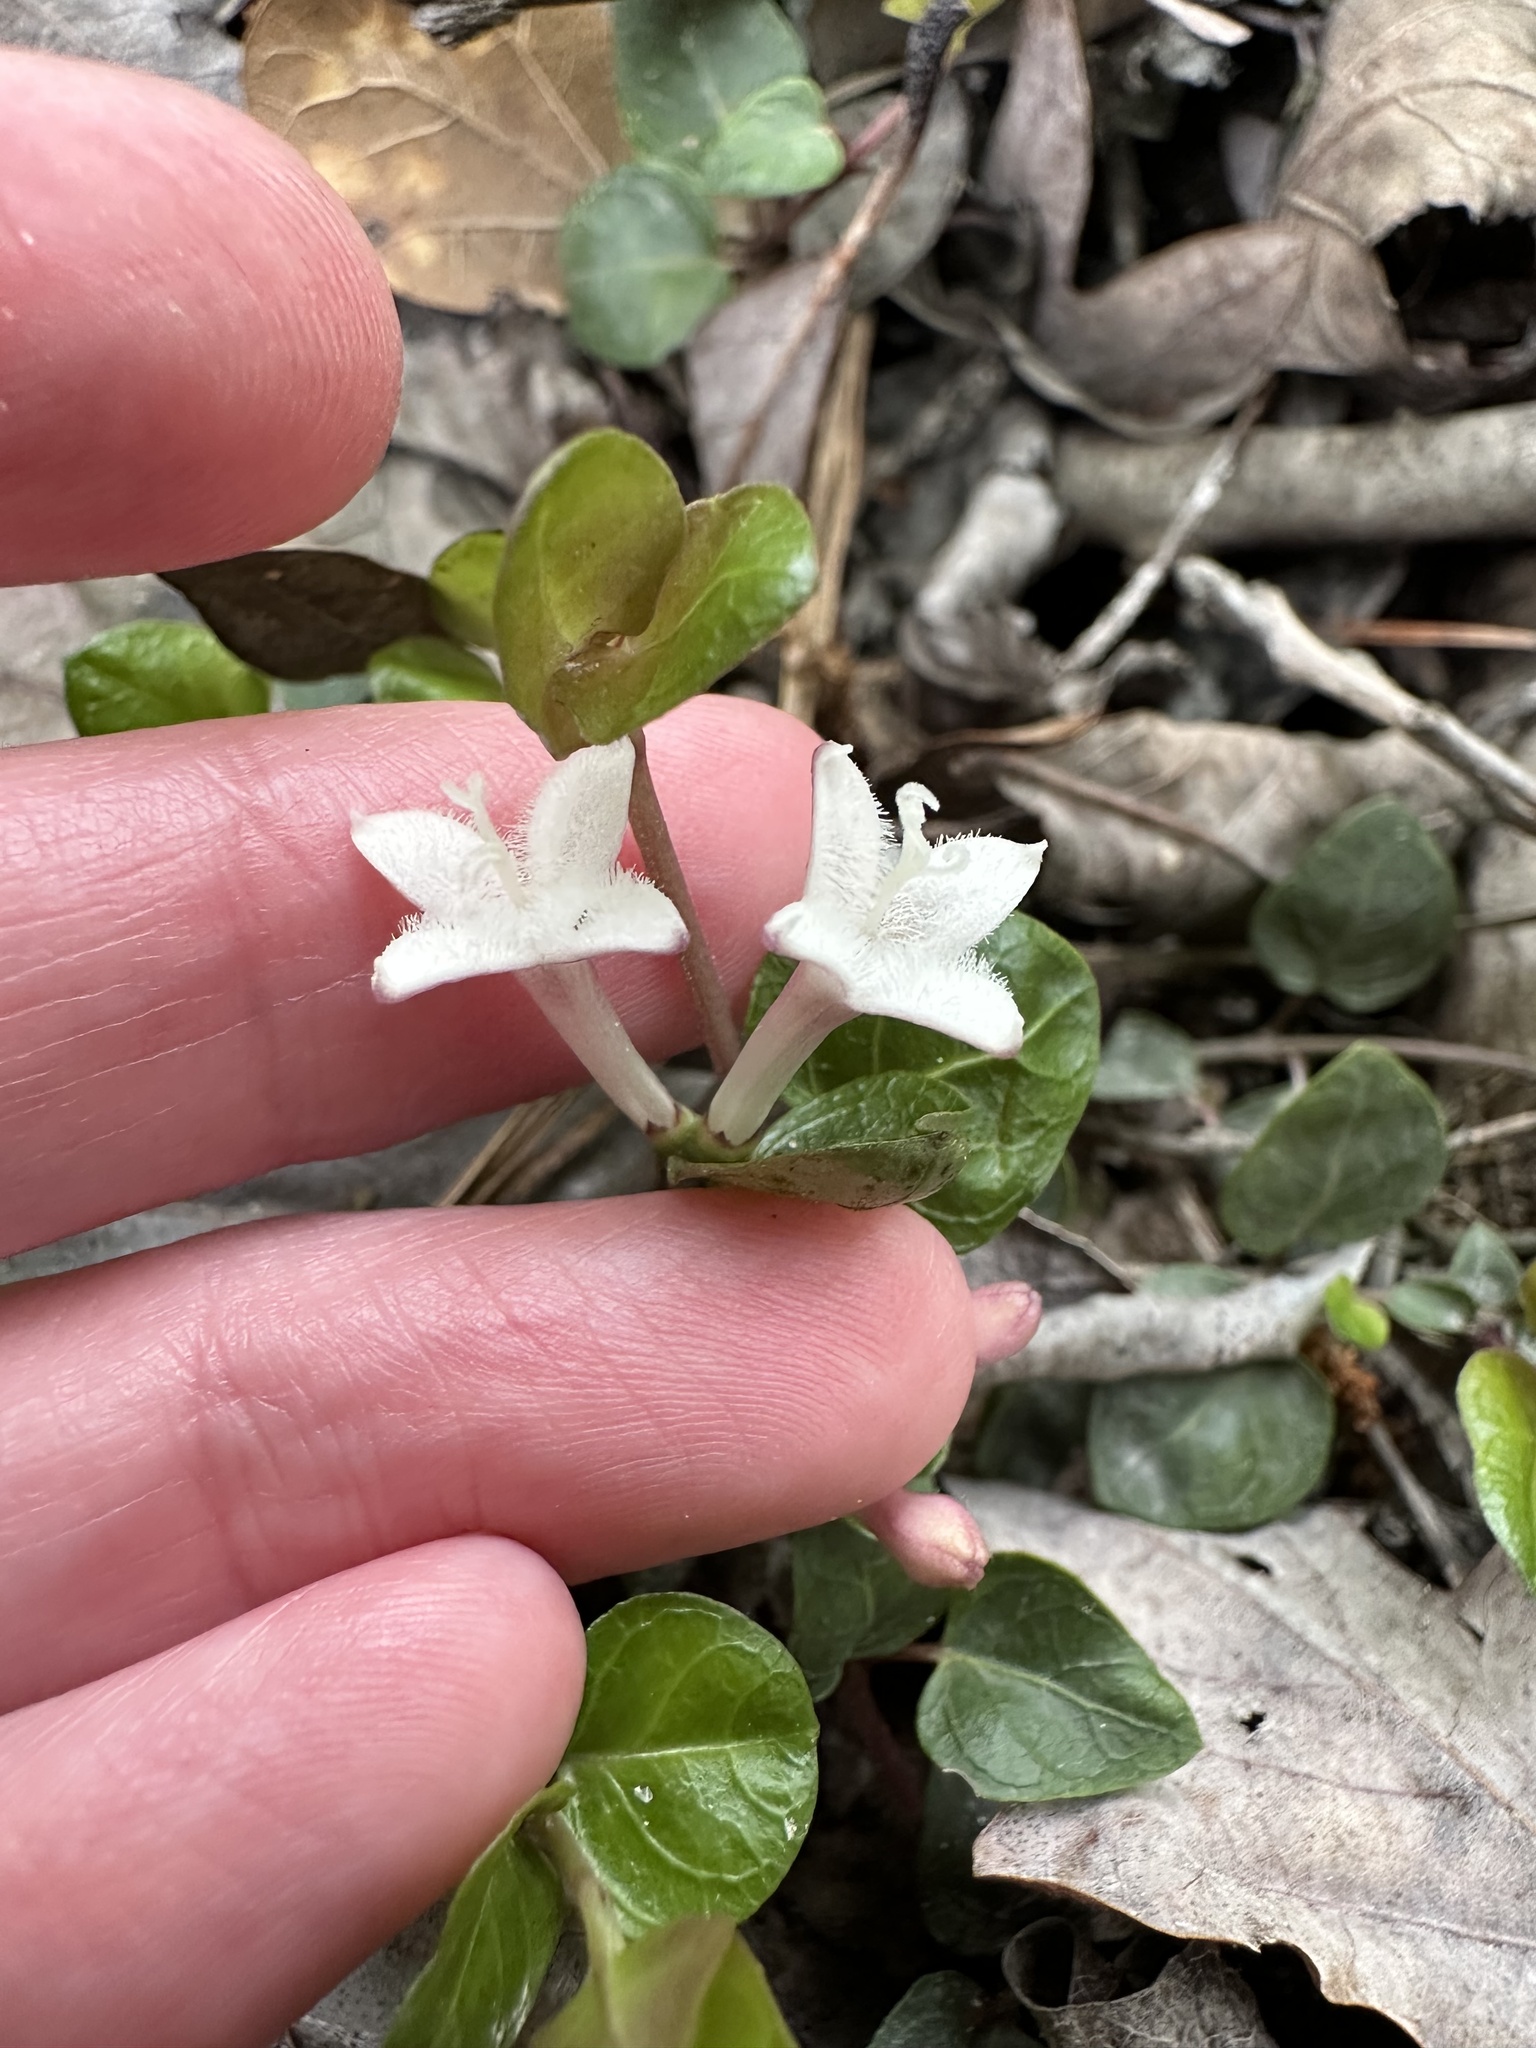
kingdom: Plantae
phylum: Tracheophyta
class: Magnoliopsida
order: Gentianales
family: Rubiaceae
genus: Mitchella
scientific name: Mitchella repens
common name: Partridge-berry
